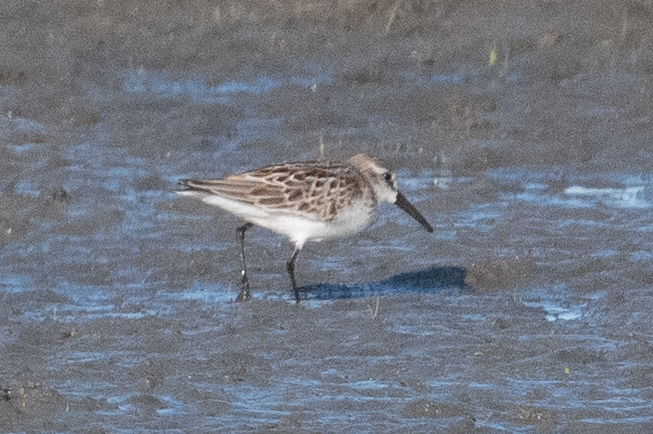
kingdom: Animalia
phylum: Chordata
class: Aves
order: Charadriiformes
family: Scolopacidae
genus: Calidris
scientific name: Calidris mauri
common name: Western sandpiper
